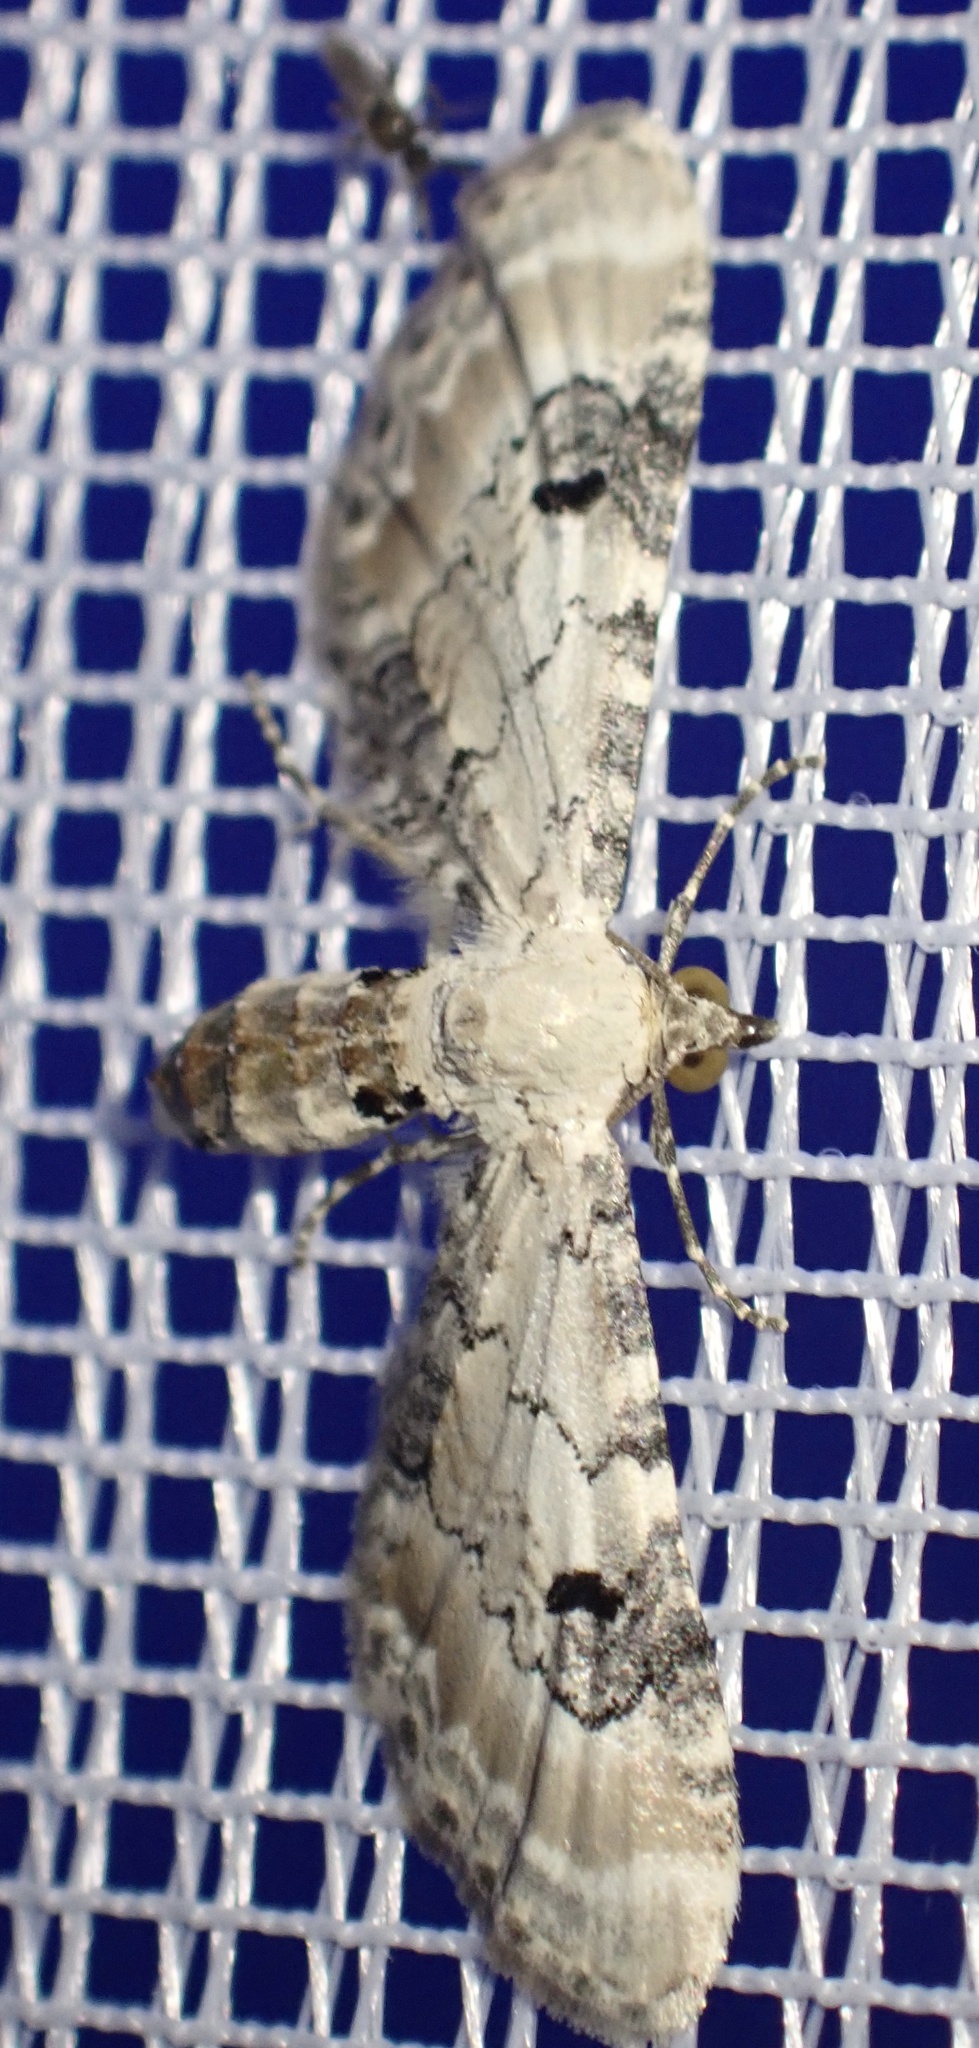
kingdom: Animalia
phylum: Arthropoda
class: Insecta
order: Lepidoptera
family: Geometridae
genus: Eupithecia
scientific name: Eupithecia centaureata
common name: Lime-speck pug
